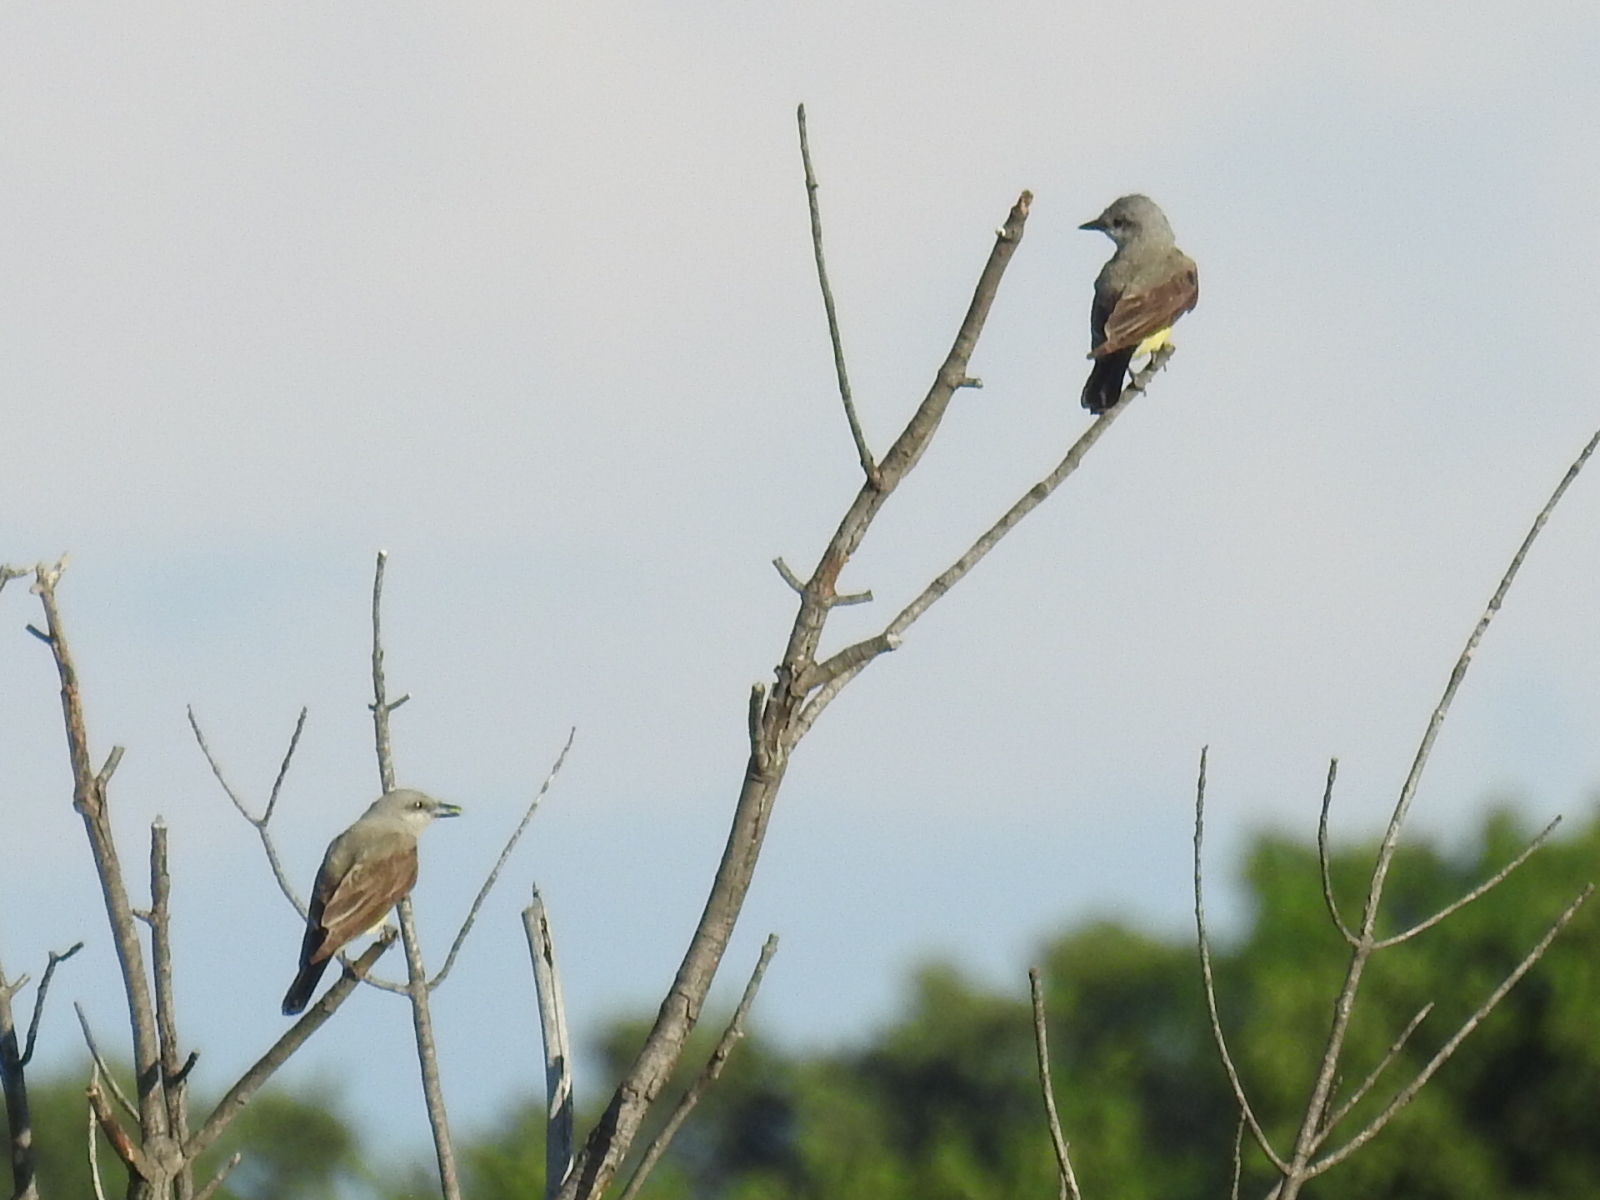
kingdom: Animalia
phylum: Chordata
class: Aves
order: Passeriformes
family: Tyrannidae
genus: Tyrannus
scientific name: Tyrannus verticalis
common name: Western kingbird
